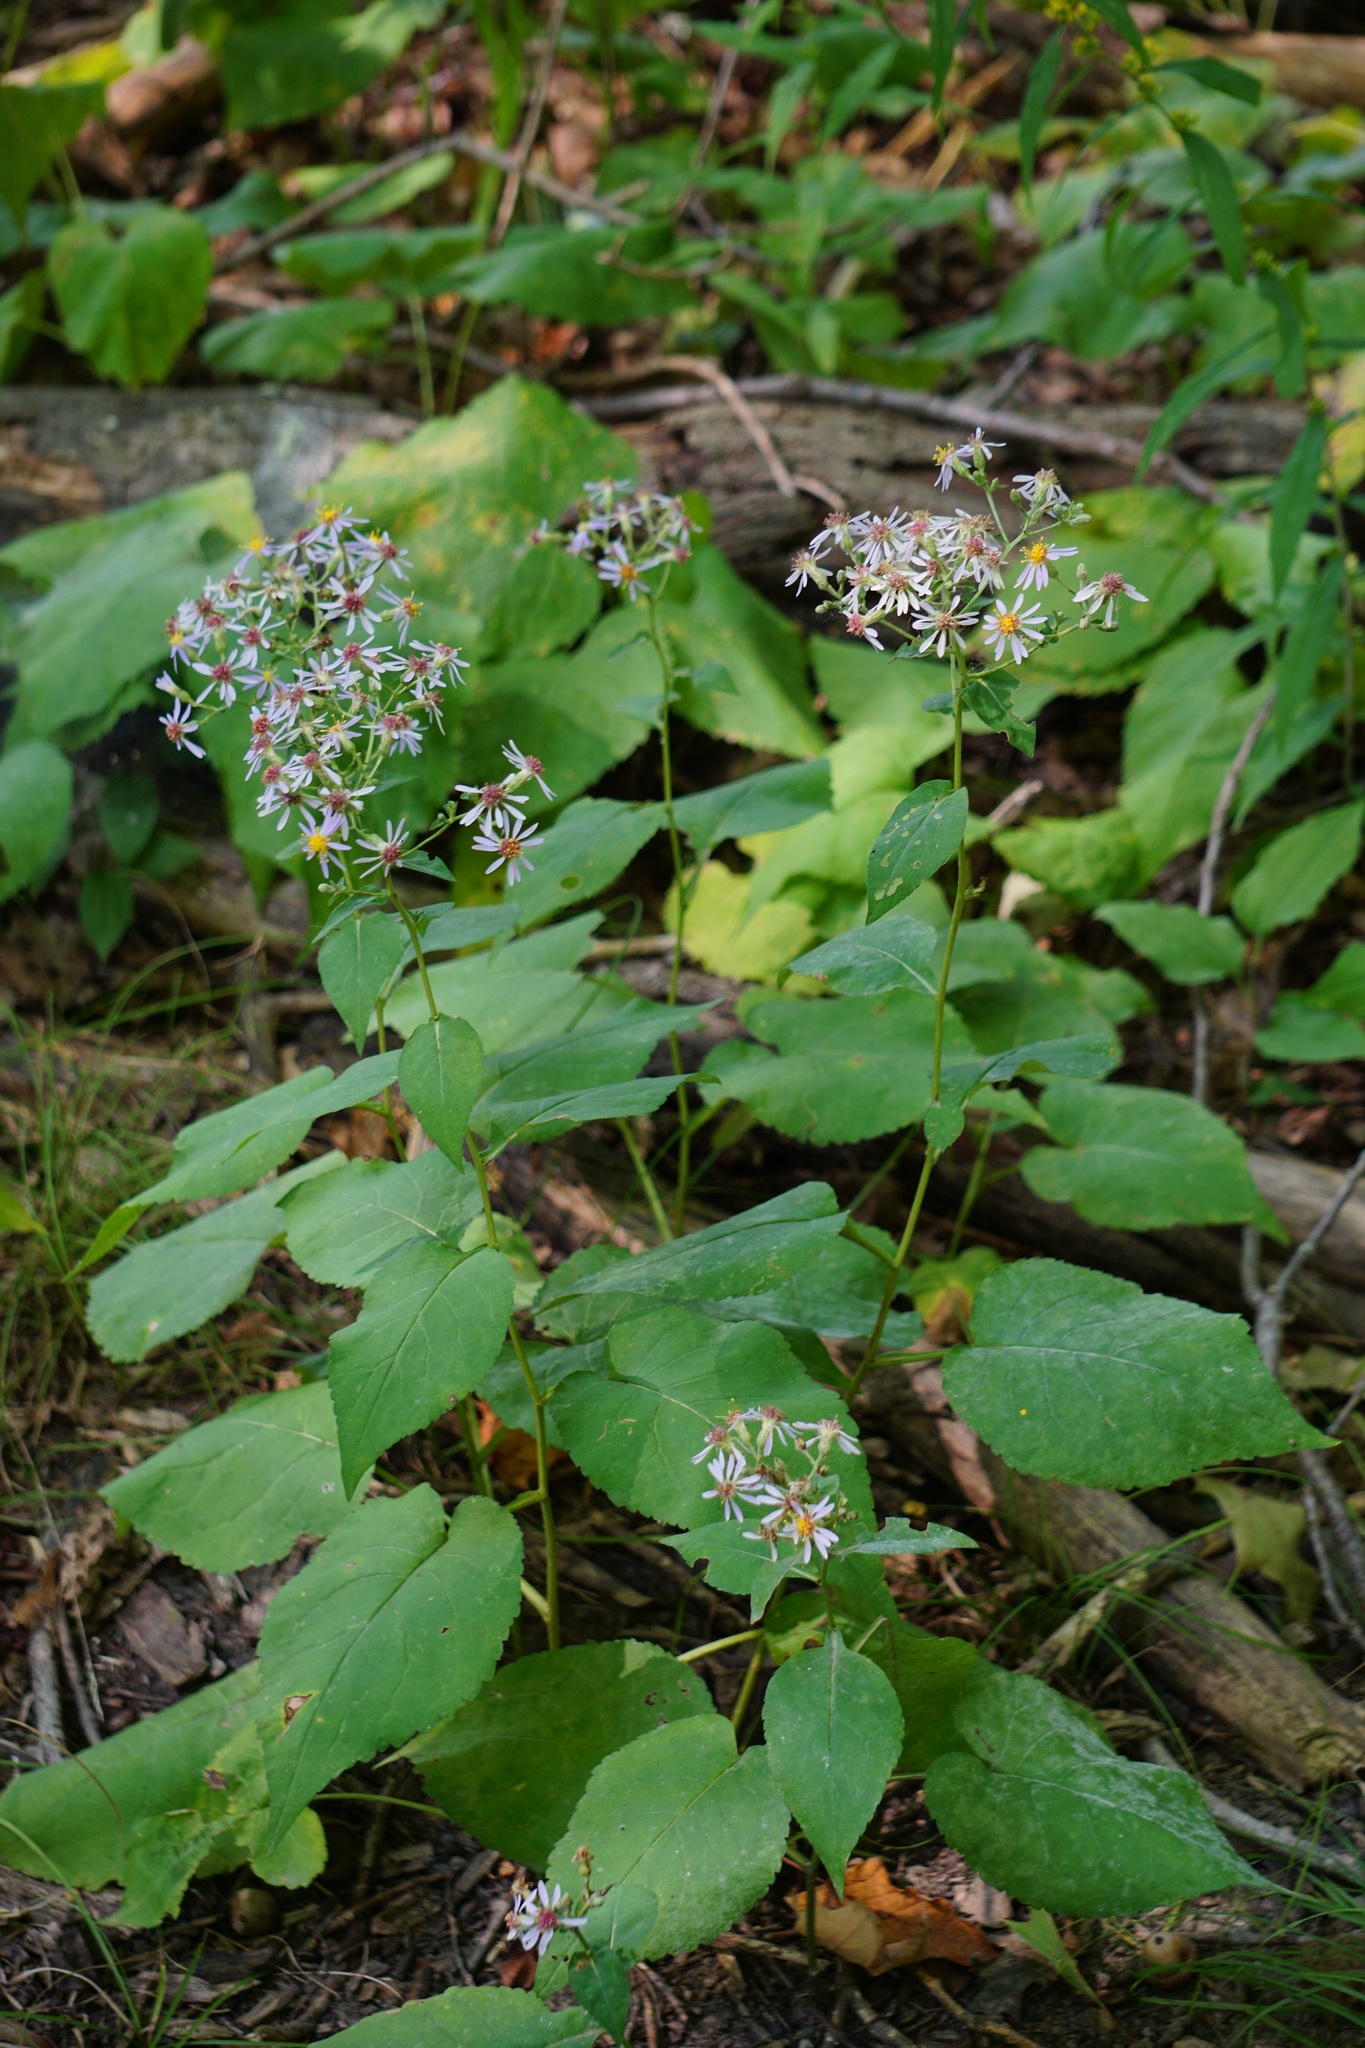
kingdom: Plantae
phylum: Tracheophyta
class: Magnoliopsida
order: Asterales
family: Asteraceae
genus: Eurybia
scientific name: Eurybia macrophylla
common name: Big-leaved aster
